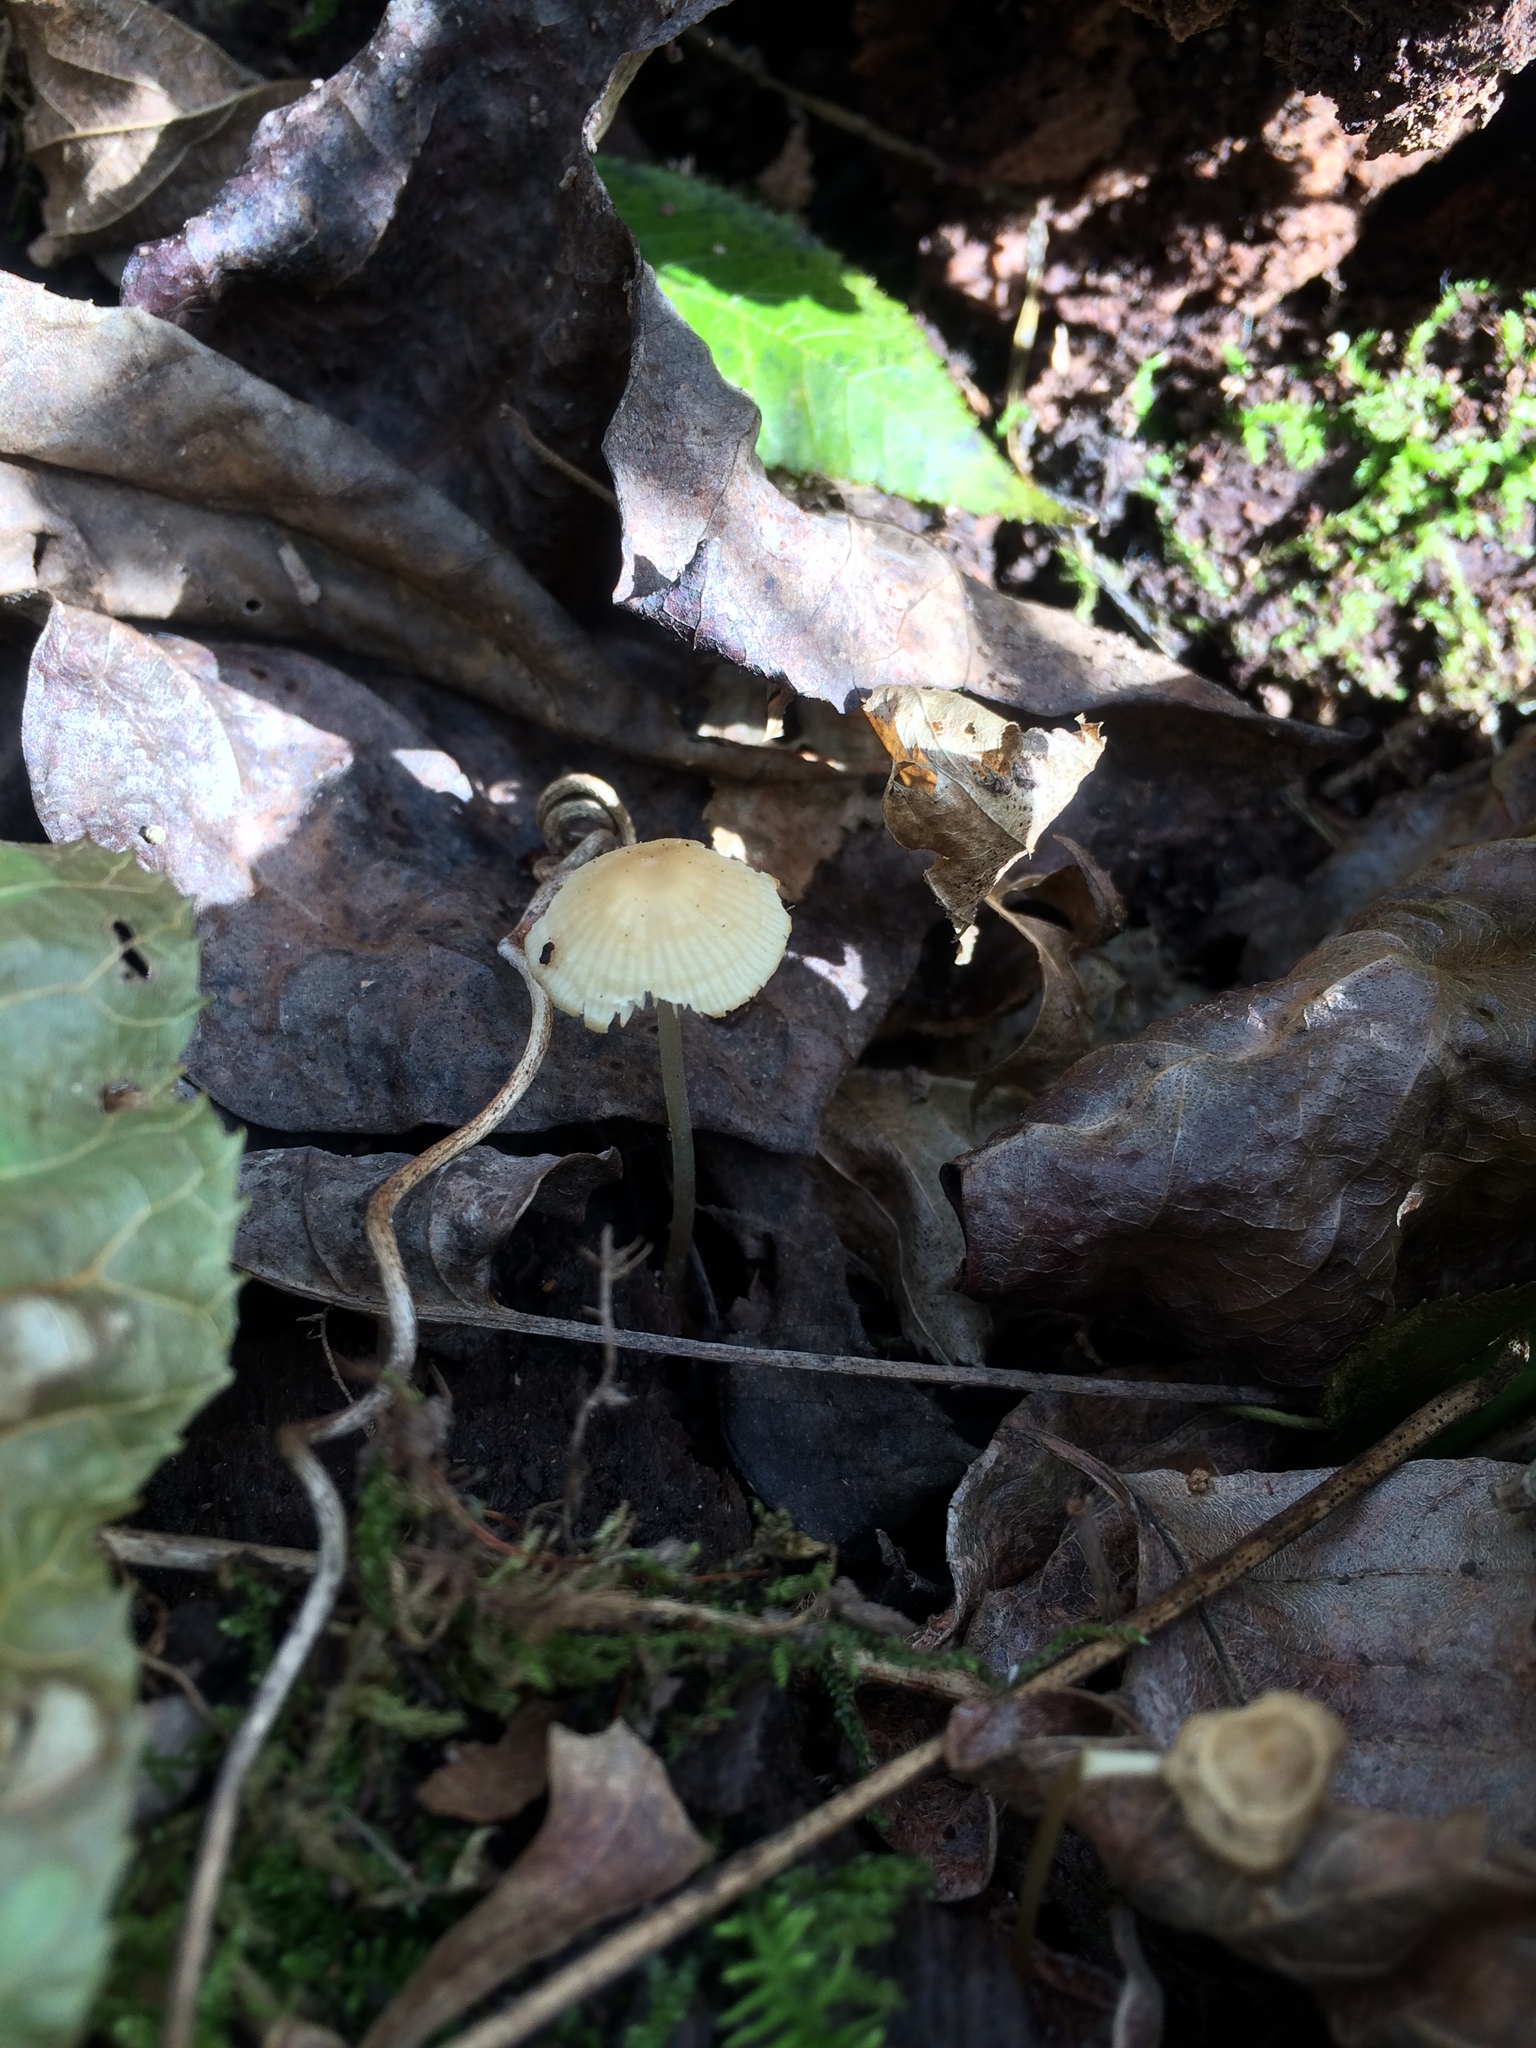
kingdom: Fungi
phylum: Basidiomycota
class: Agaricomycetes
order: Agaricales
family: Mycenaceae
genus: Atheniella
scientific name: Atheniella leptophylla
